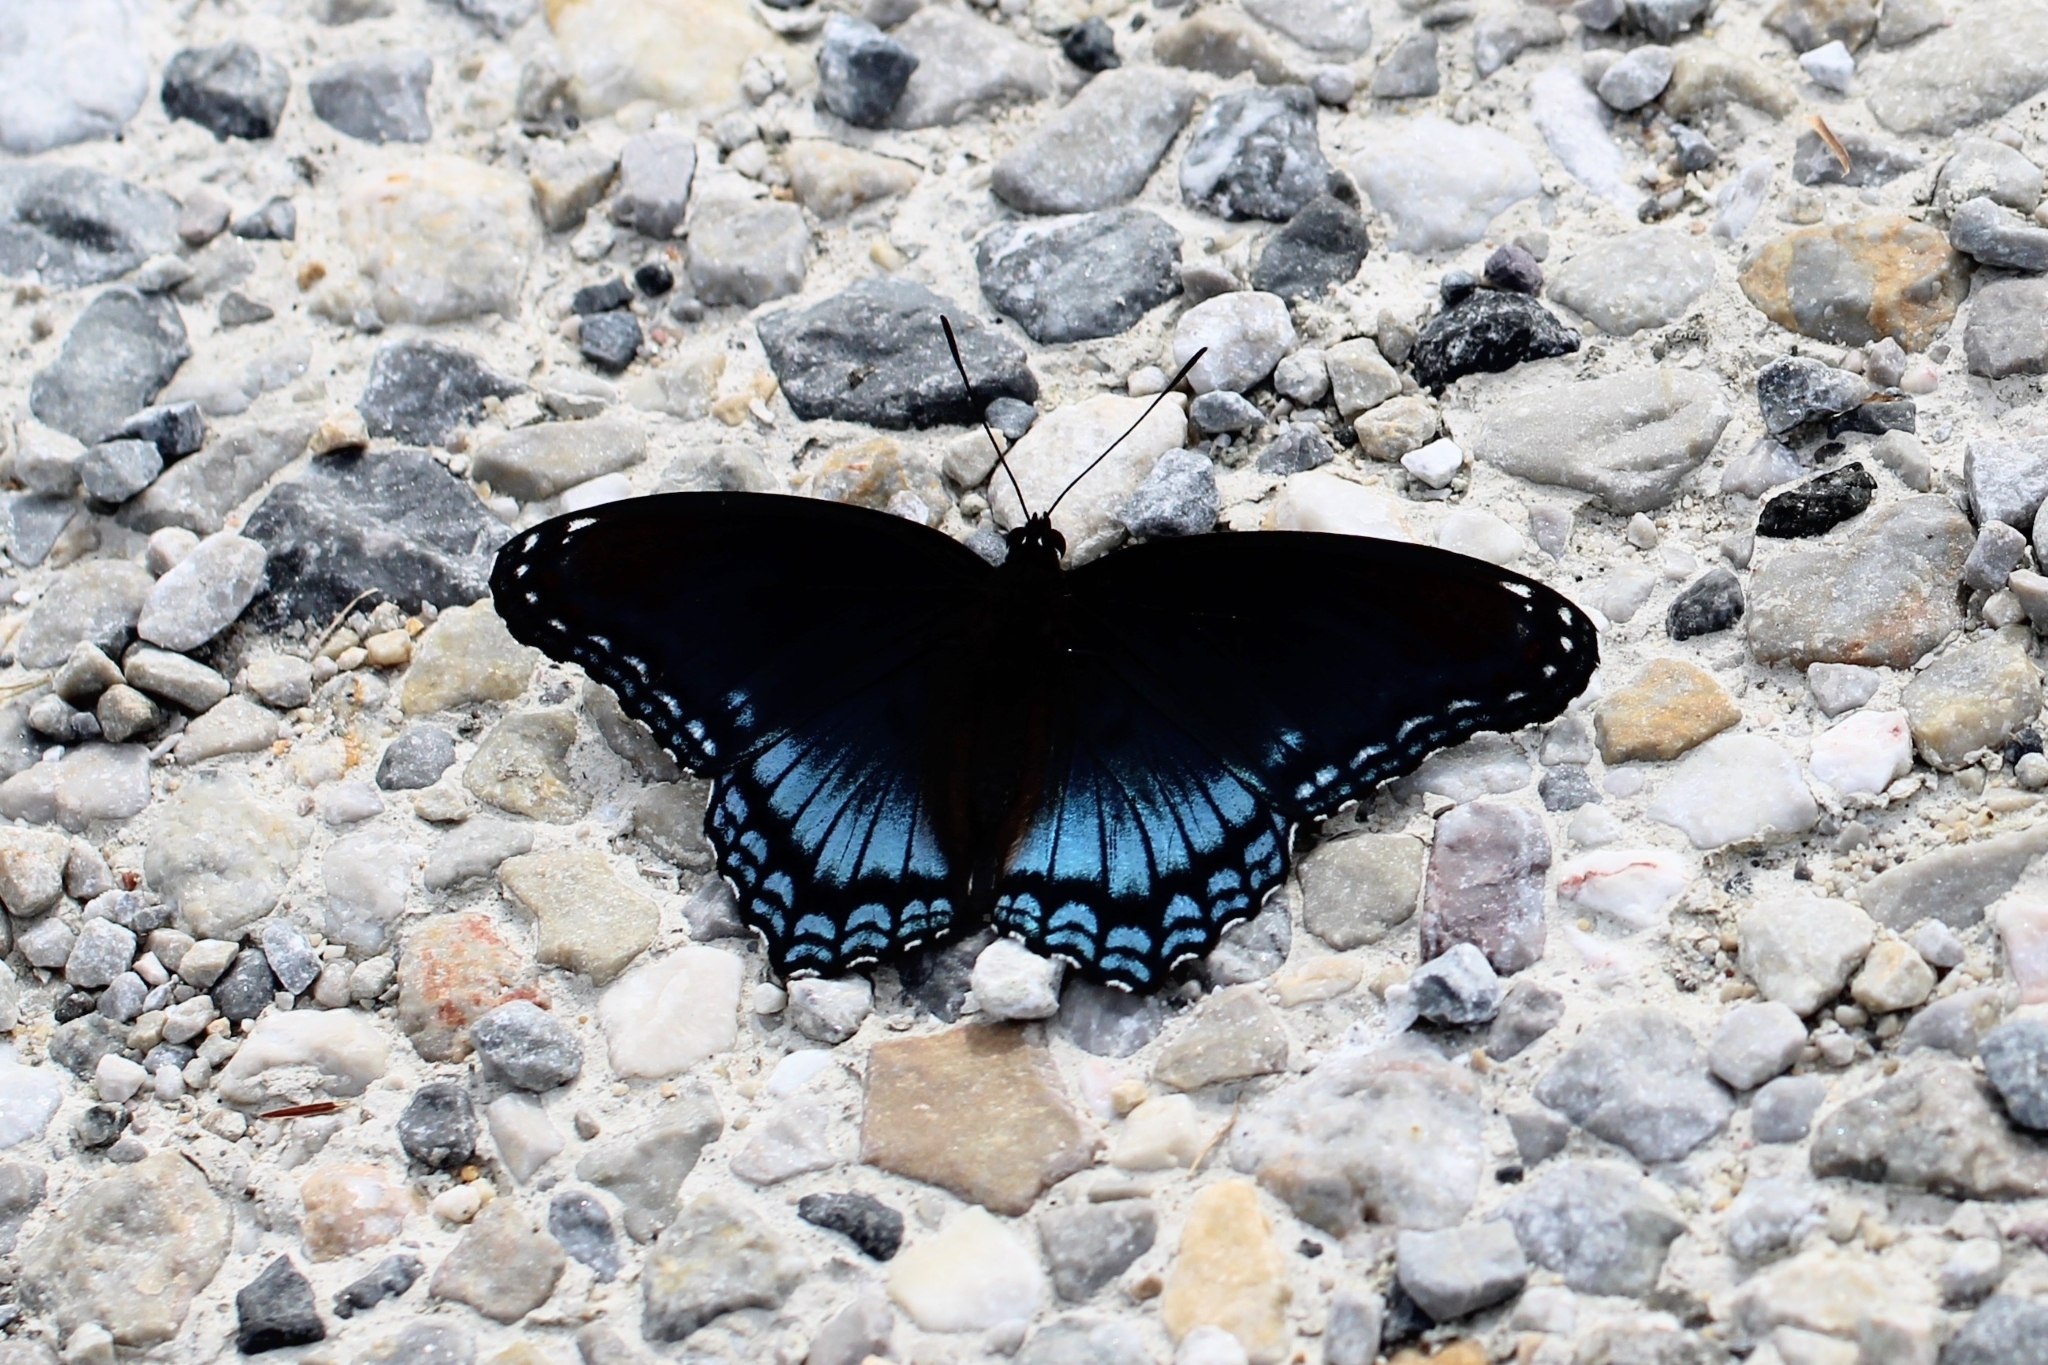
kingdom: Animalia
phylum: Arthropoda
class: Insecta
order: Lepidoptera
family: Nymphalidae
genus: Limenitis
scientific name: Limenitis astyanax
